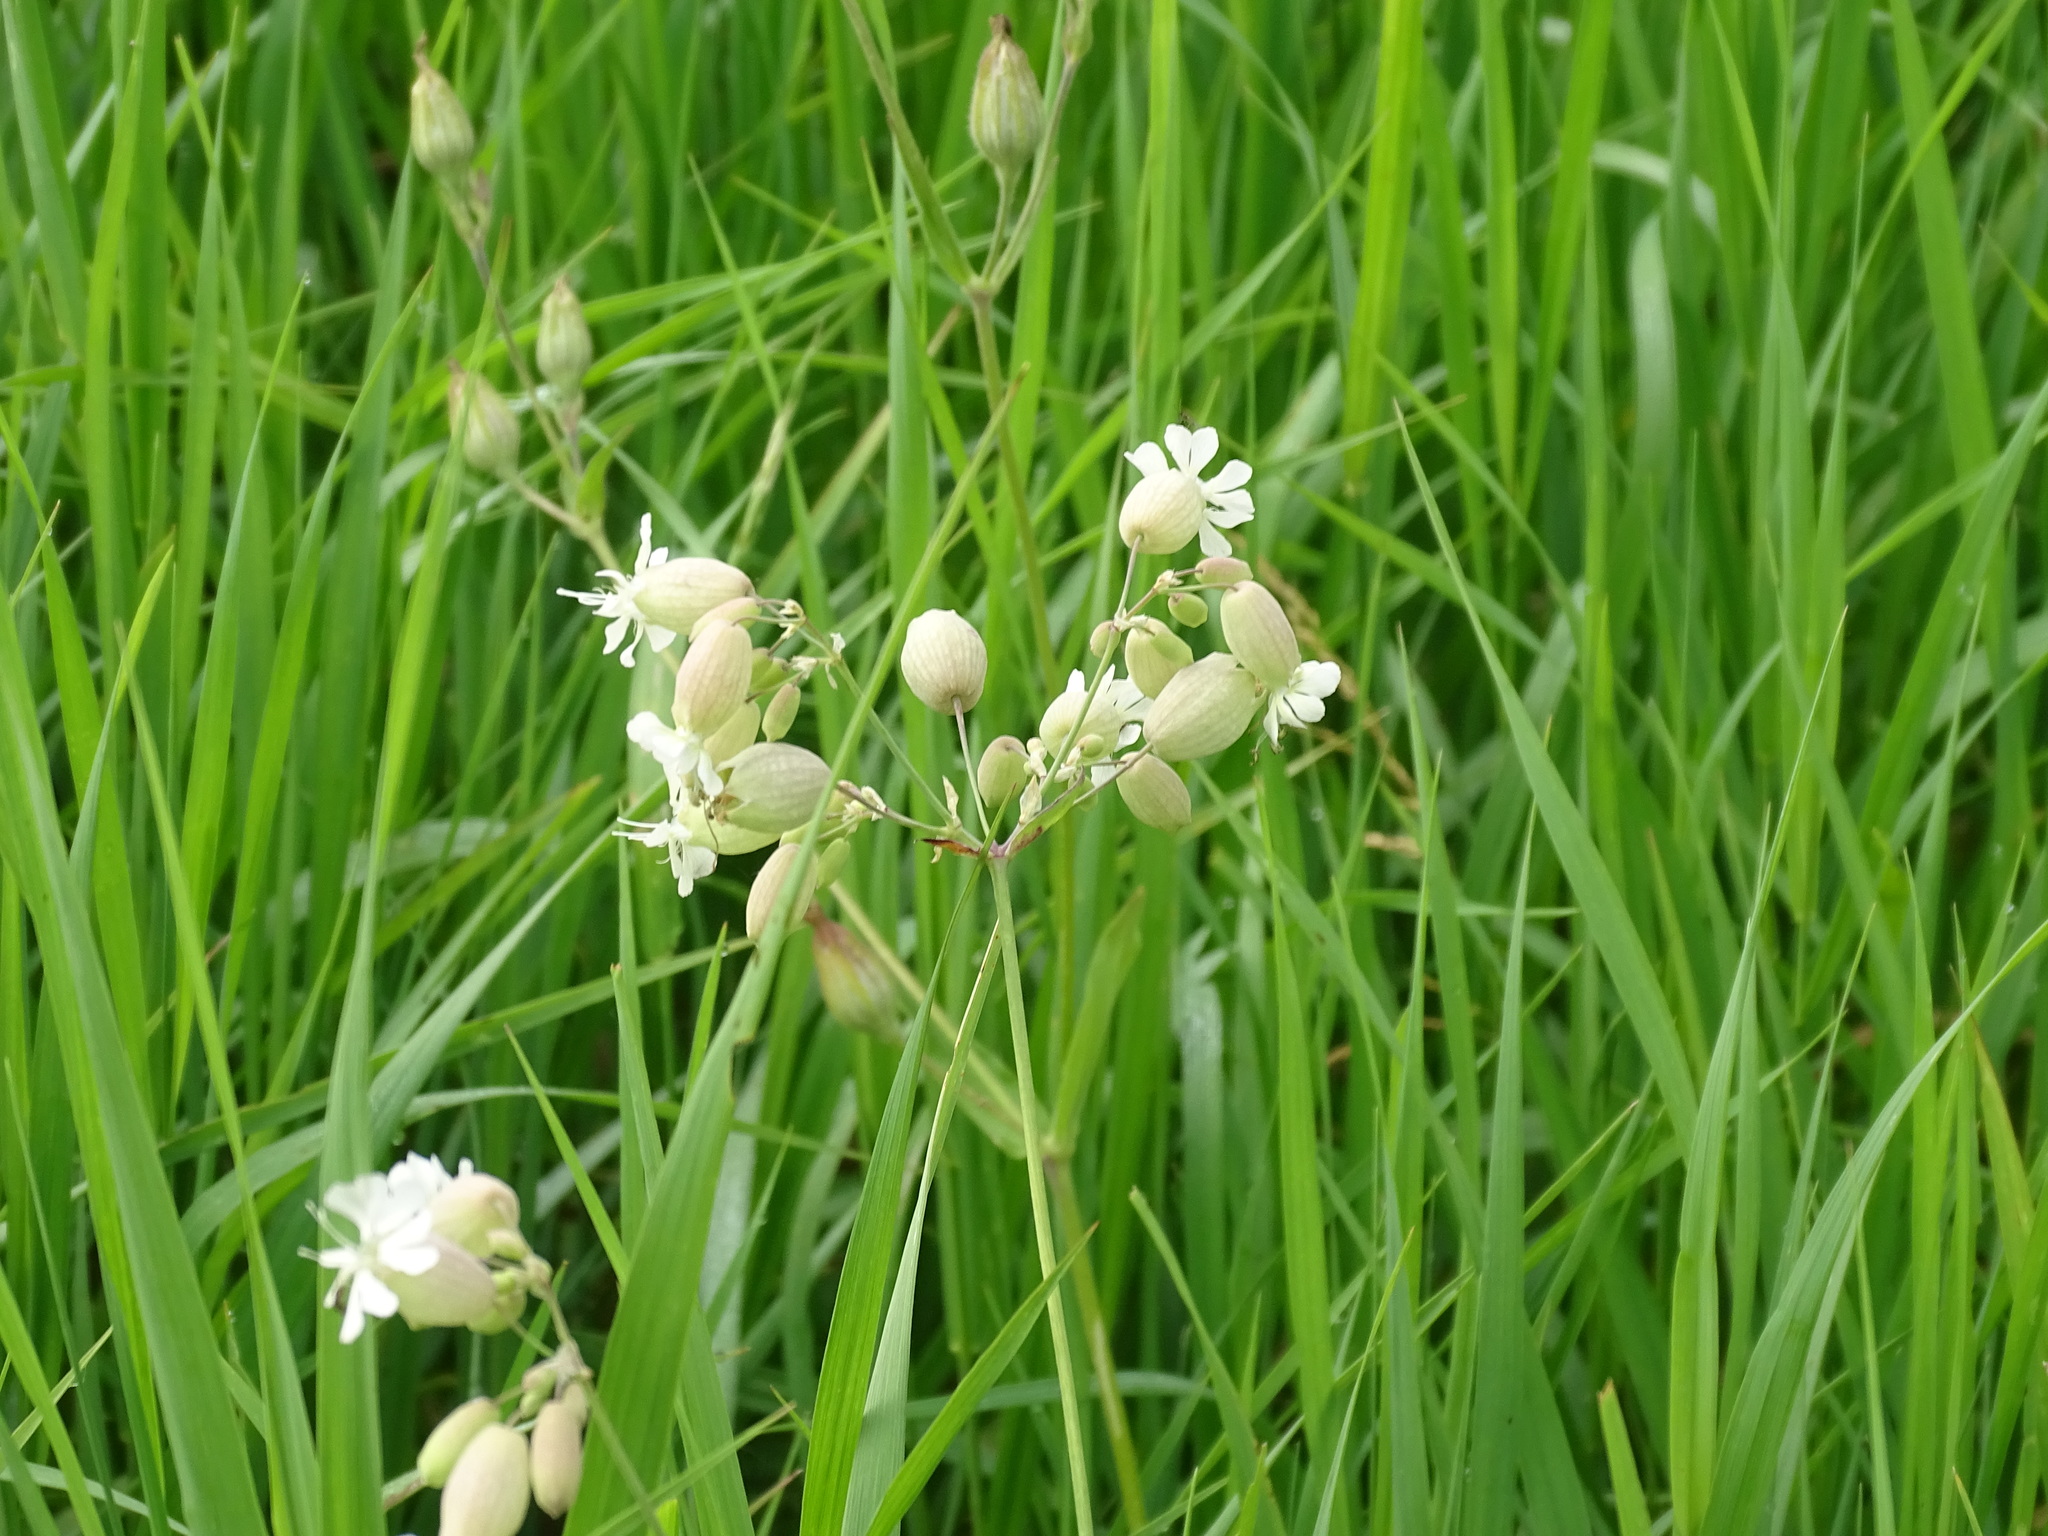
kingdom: Plantae
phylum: Tracheophyta
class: Magnoliopsida
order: Caryophyllales
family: Caryophyllaceae
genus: Silene
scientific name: Silene vulgaris
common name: Bladder campion
